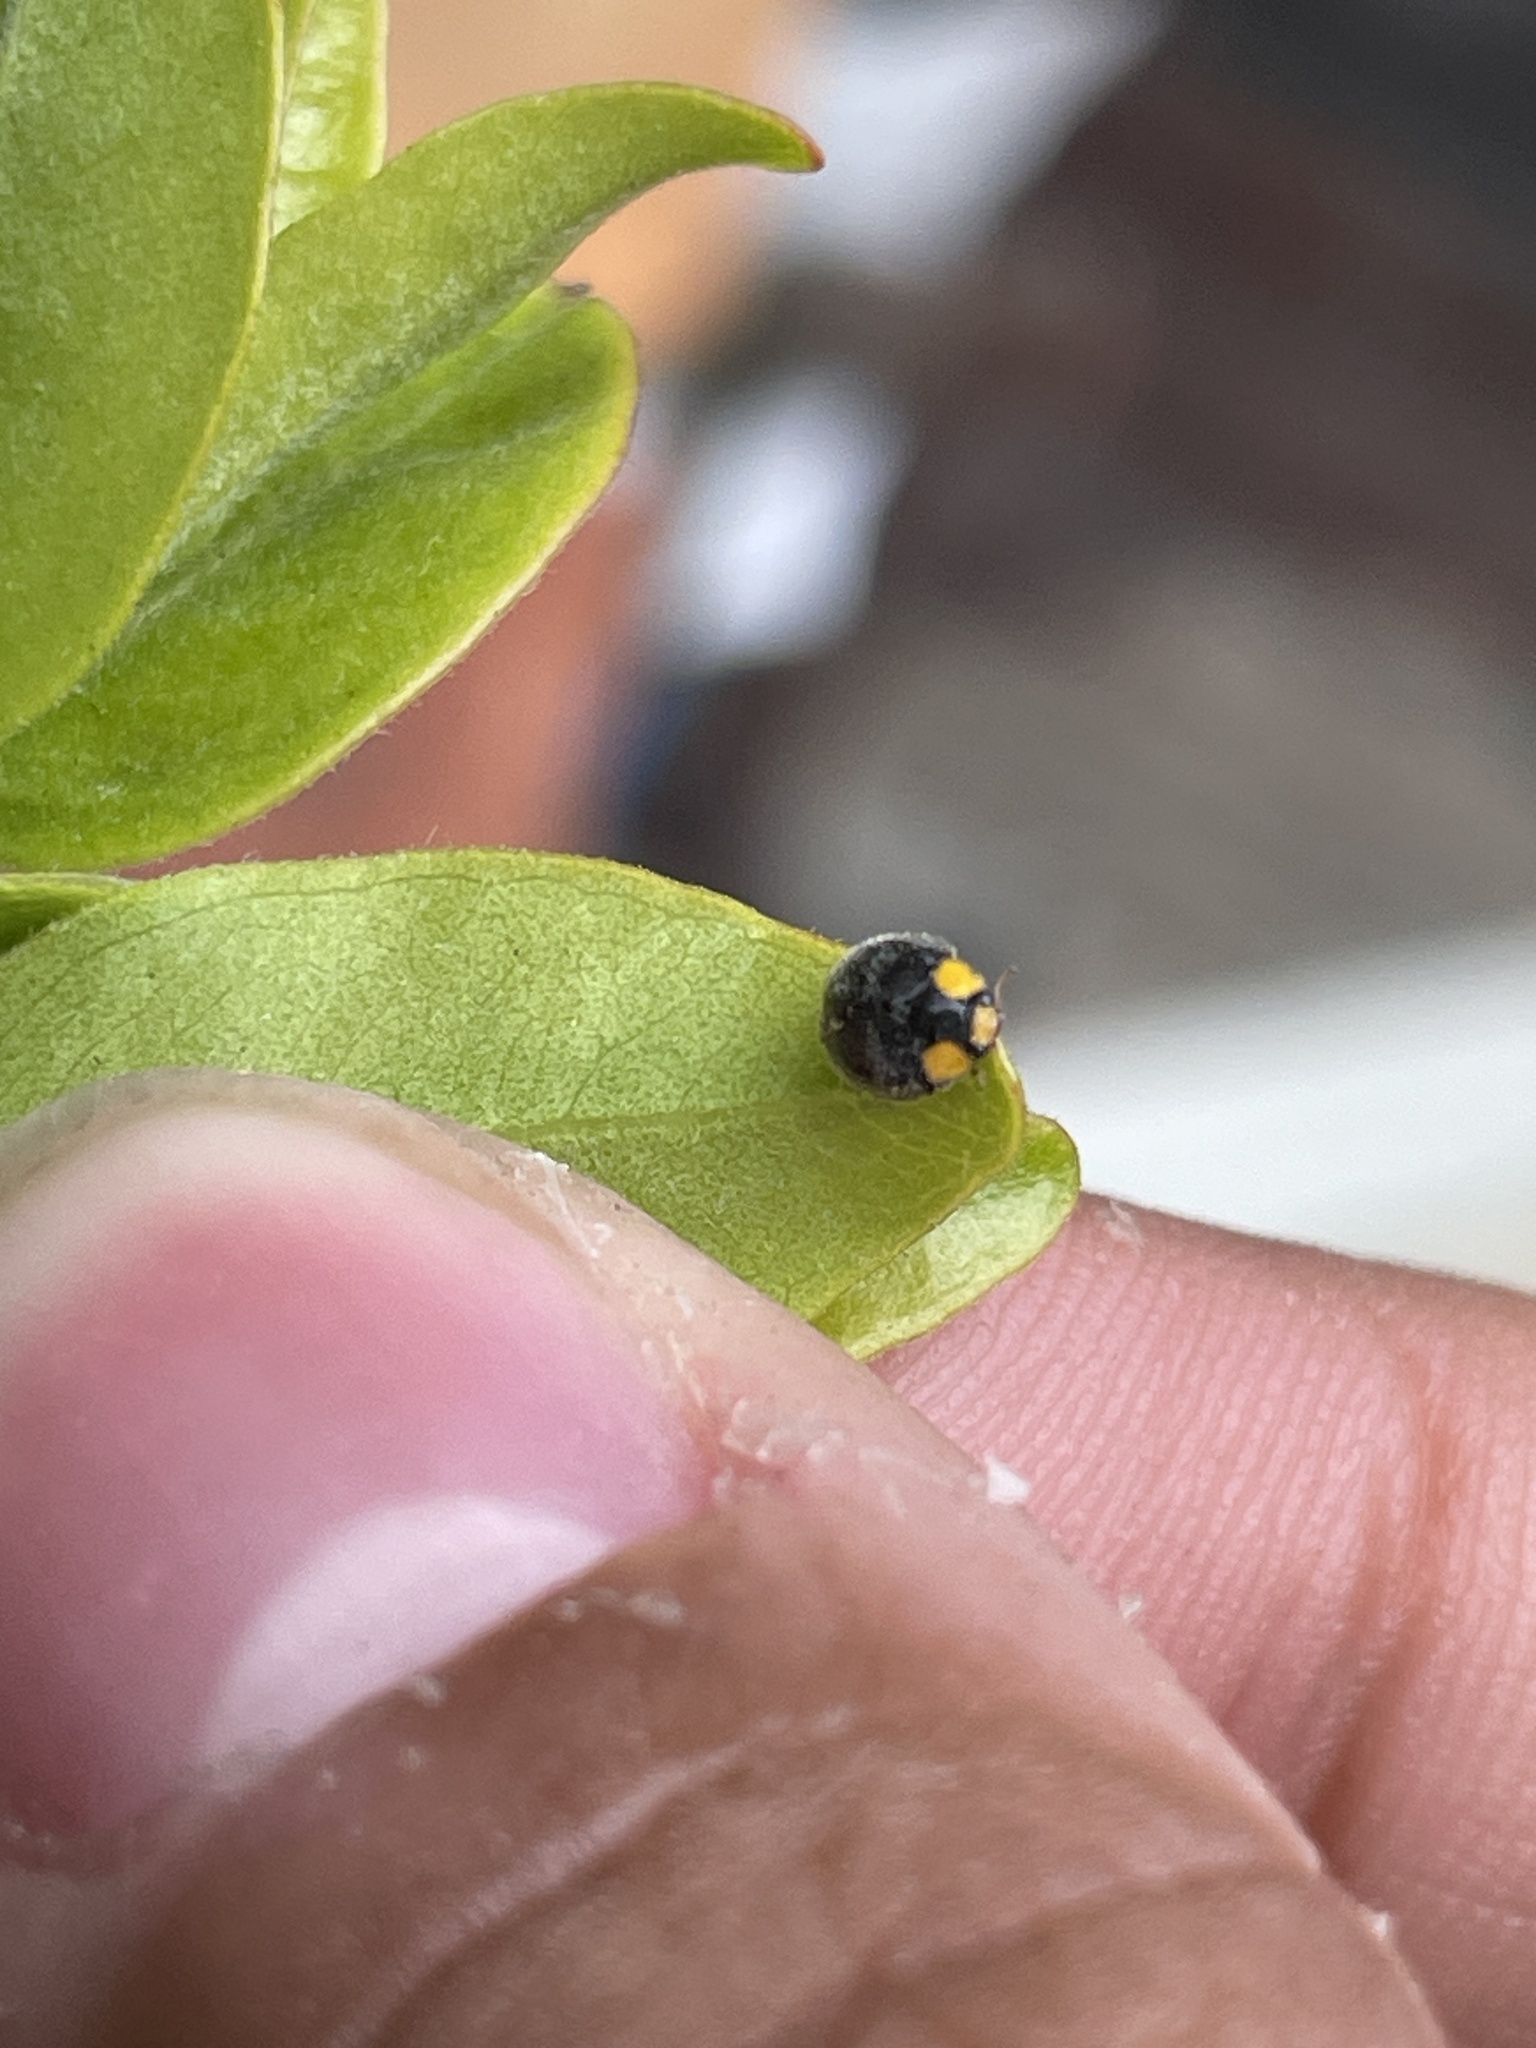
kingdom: Animalia
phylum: Arthropoda
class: Insecta
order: Coleoptera
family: Coccinellidae
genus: Scymnodes
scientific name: Scymnodes lividigaster
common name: Yellowshouldered lady beetle
